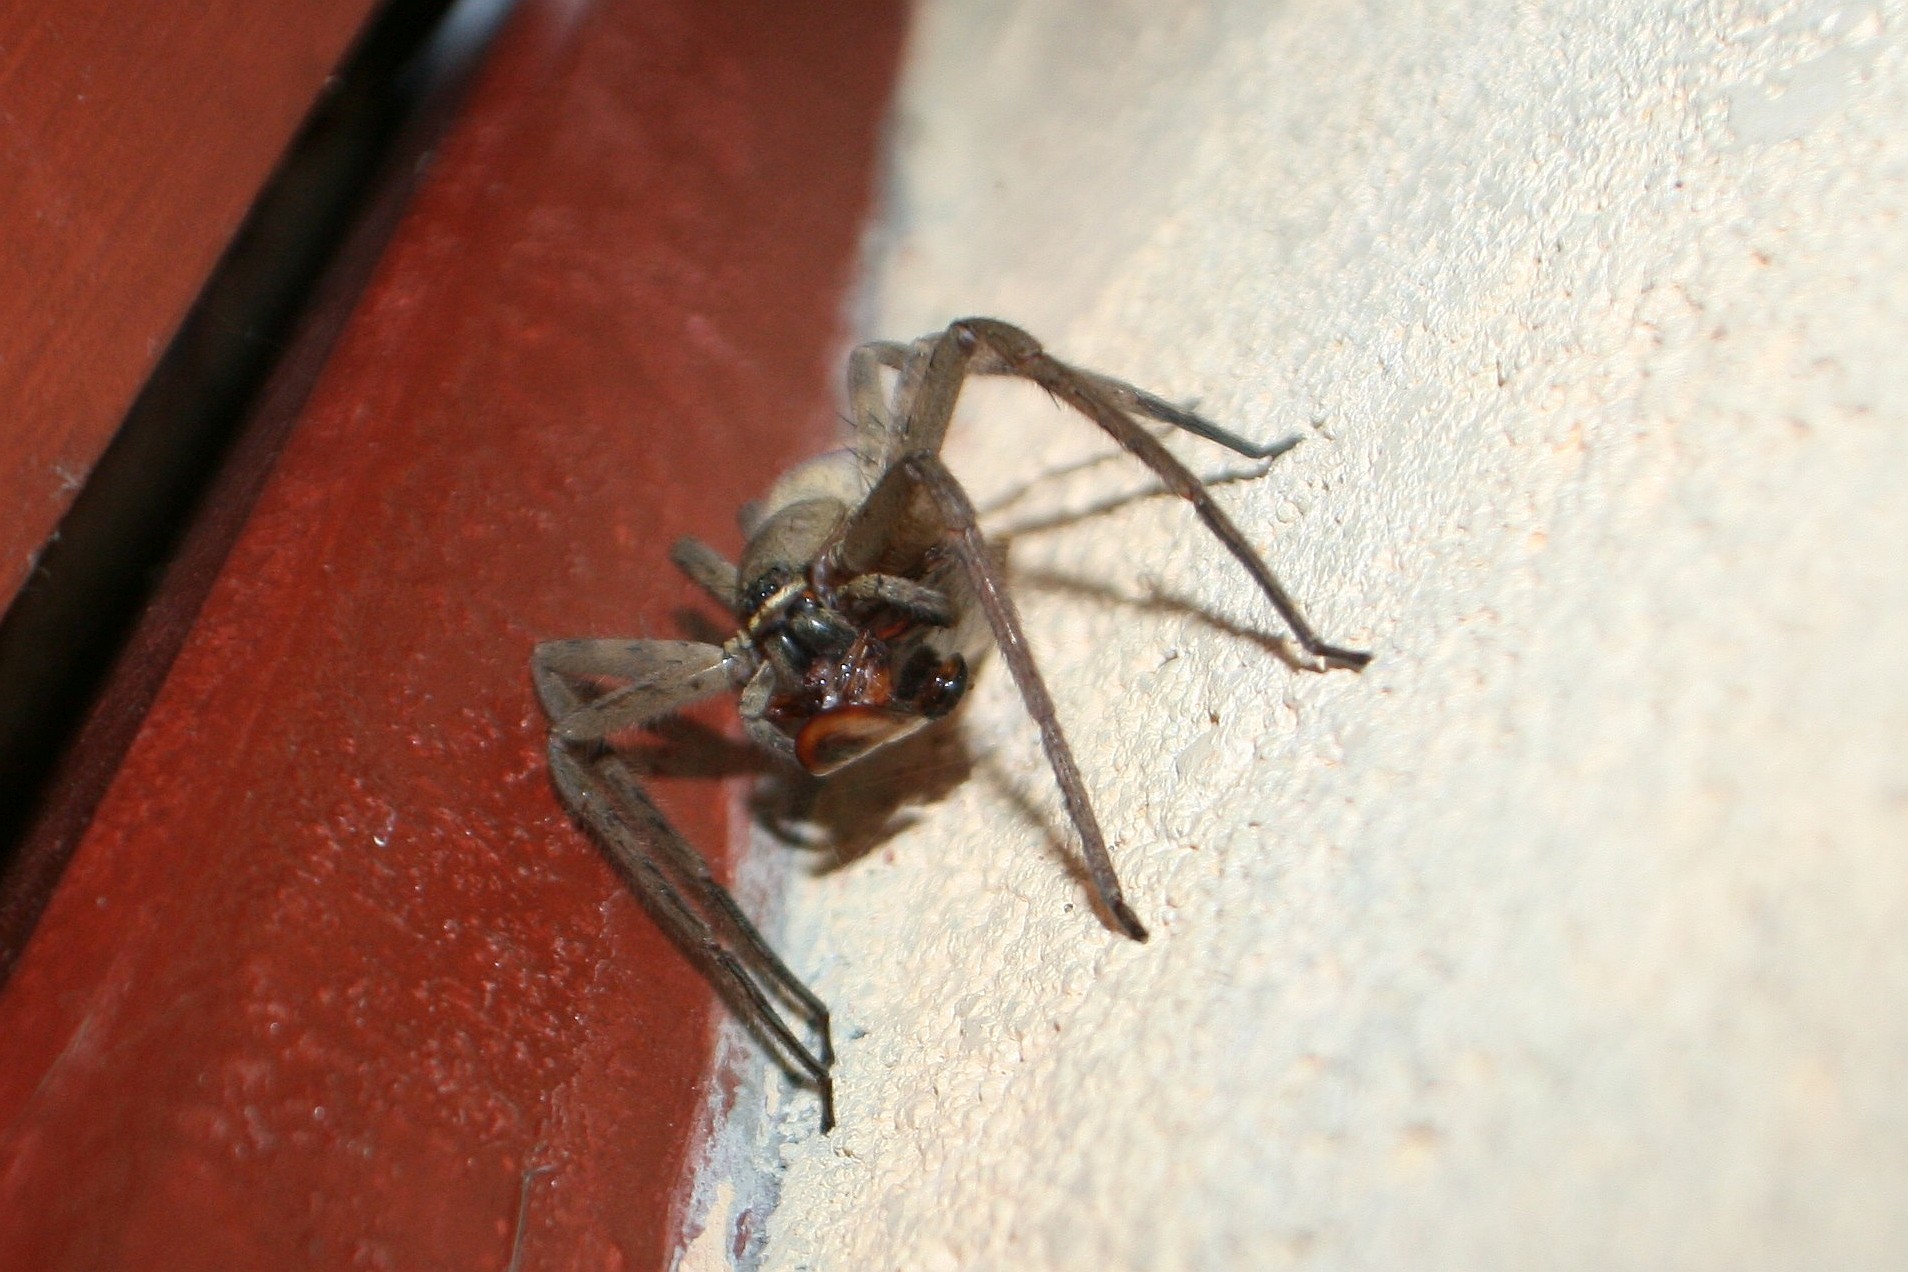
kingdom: Animalia
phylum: Arthropoda
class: Arachnida
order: Araneae
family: Sparassidae
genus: Heteropoda
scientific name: Heteropoda venatoria
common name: Huntsman spider
